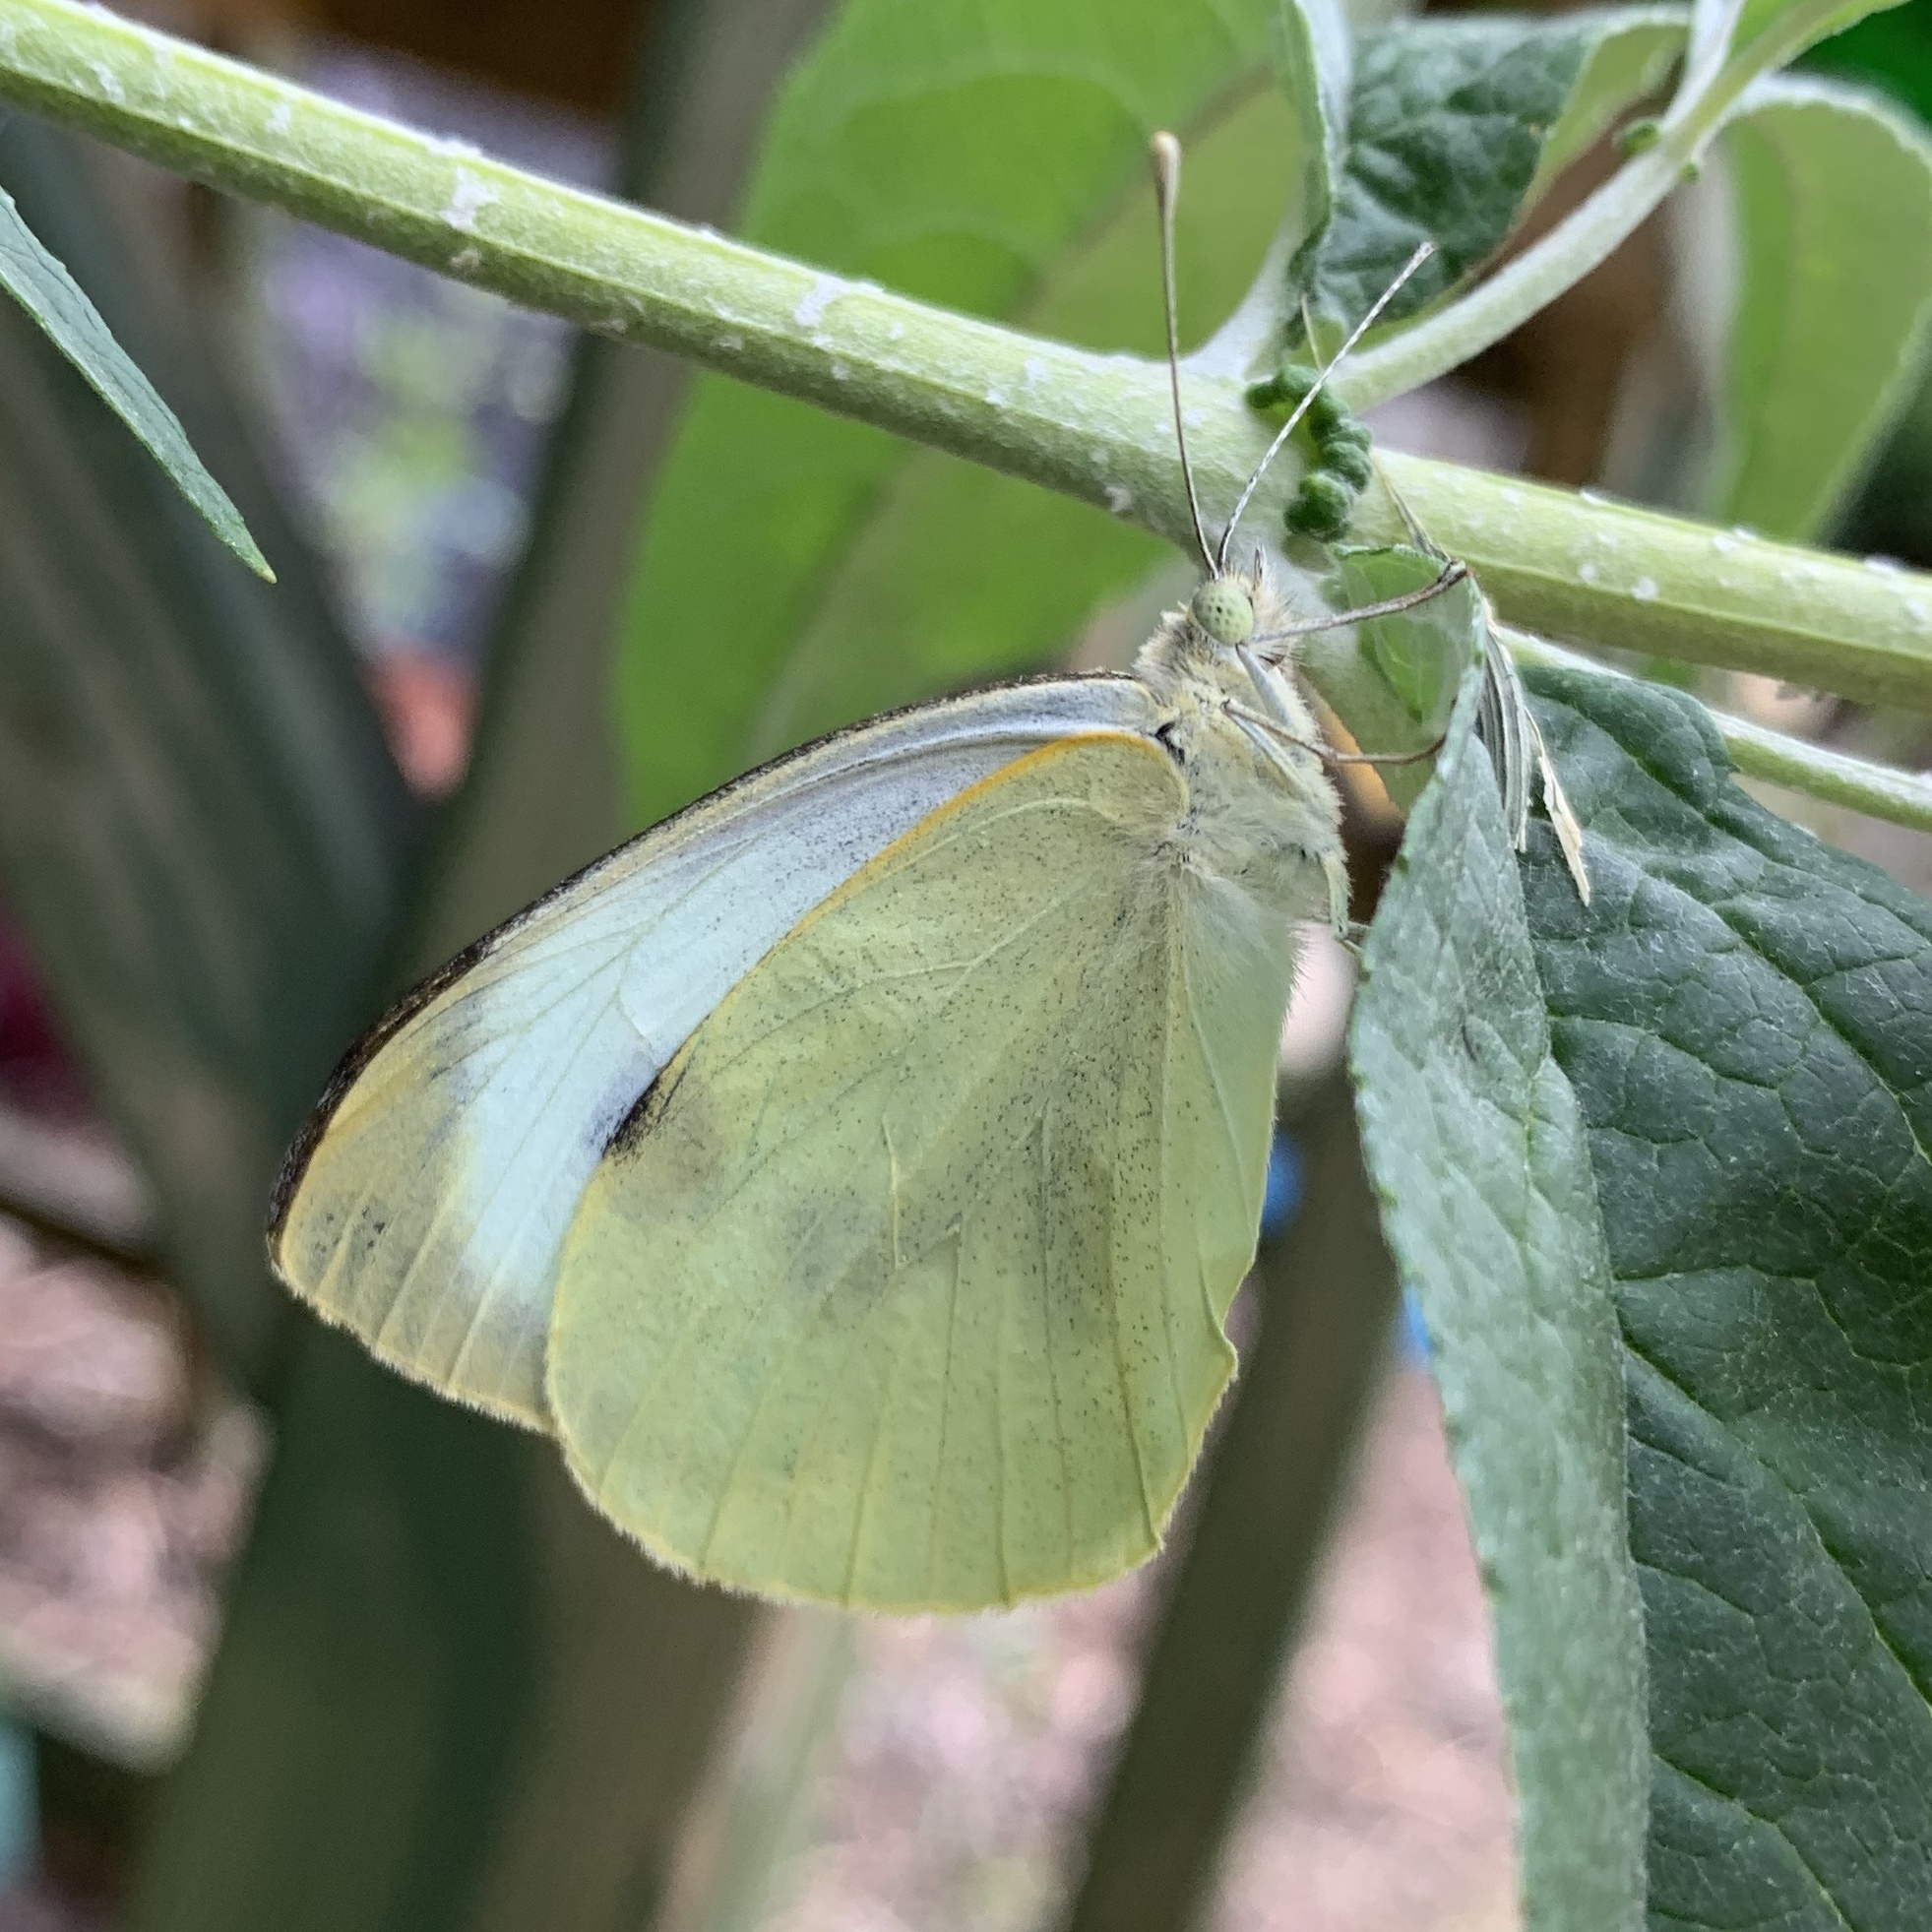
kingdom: Animalia
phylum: Arthropoda
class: Insecta
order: Lepidoptera
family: Pieridae
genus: Pieris
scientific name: Pieris brassicae
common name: Large white
